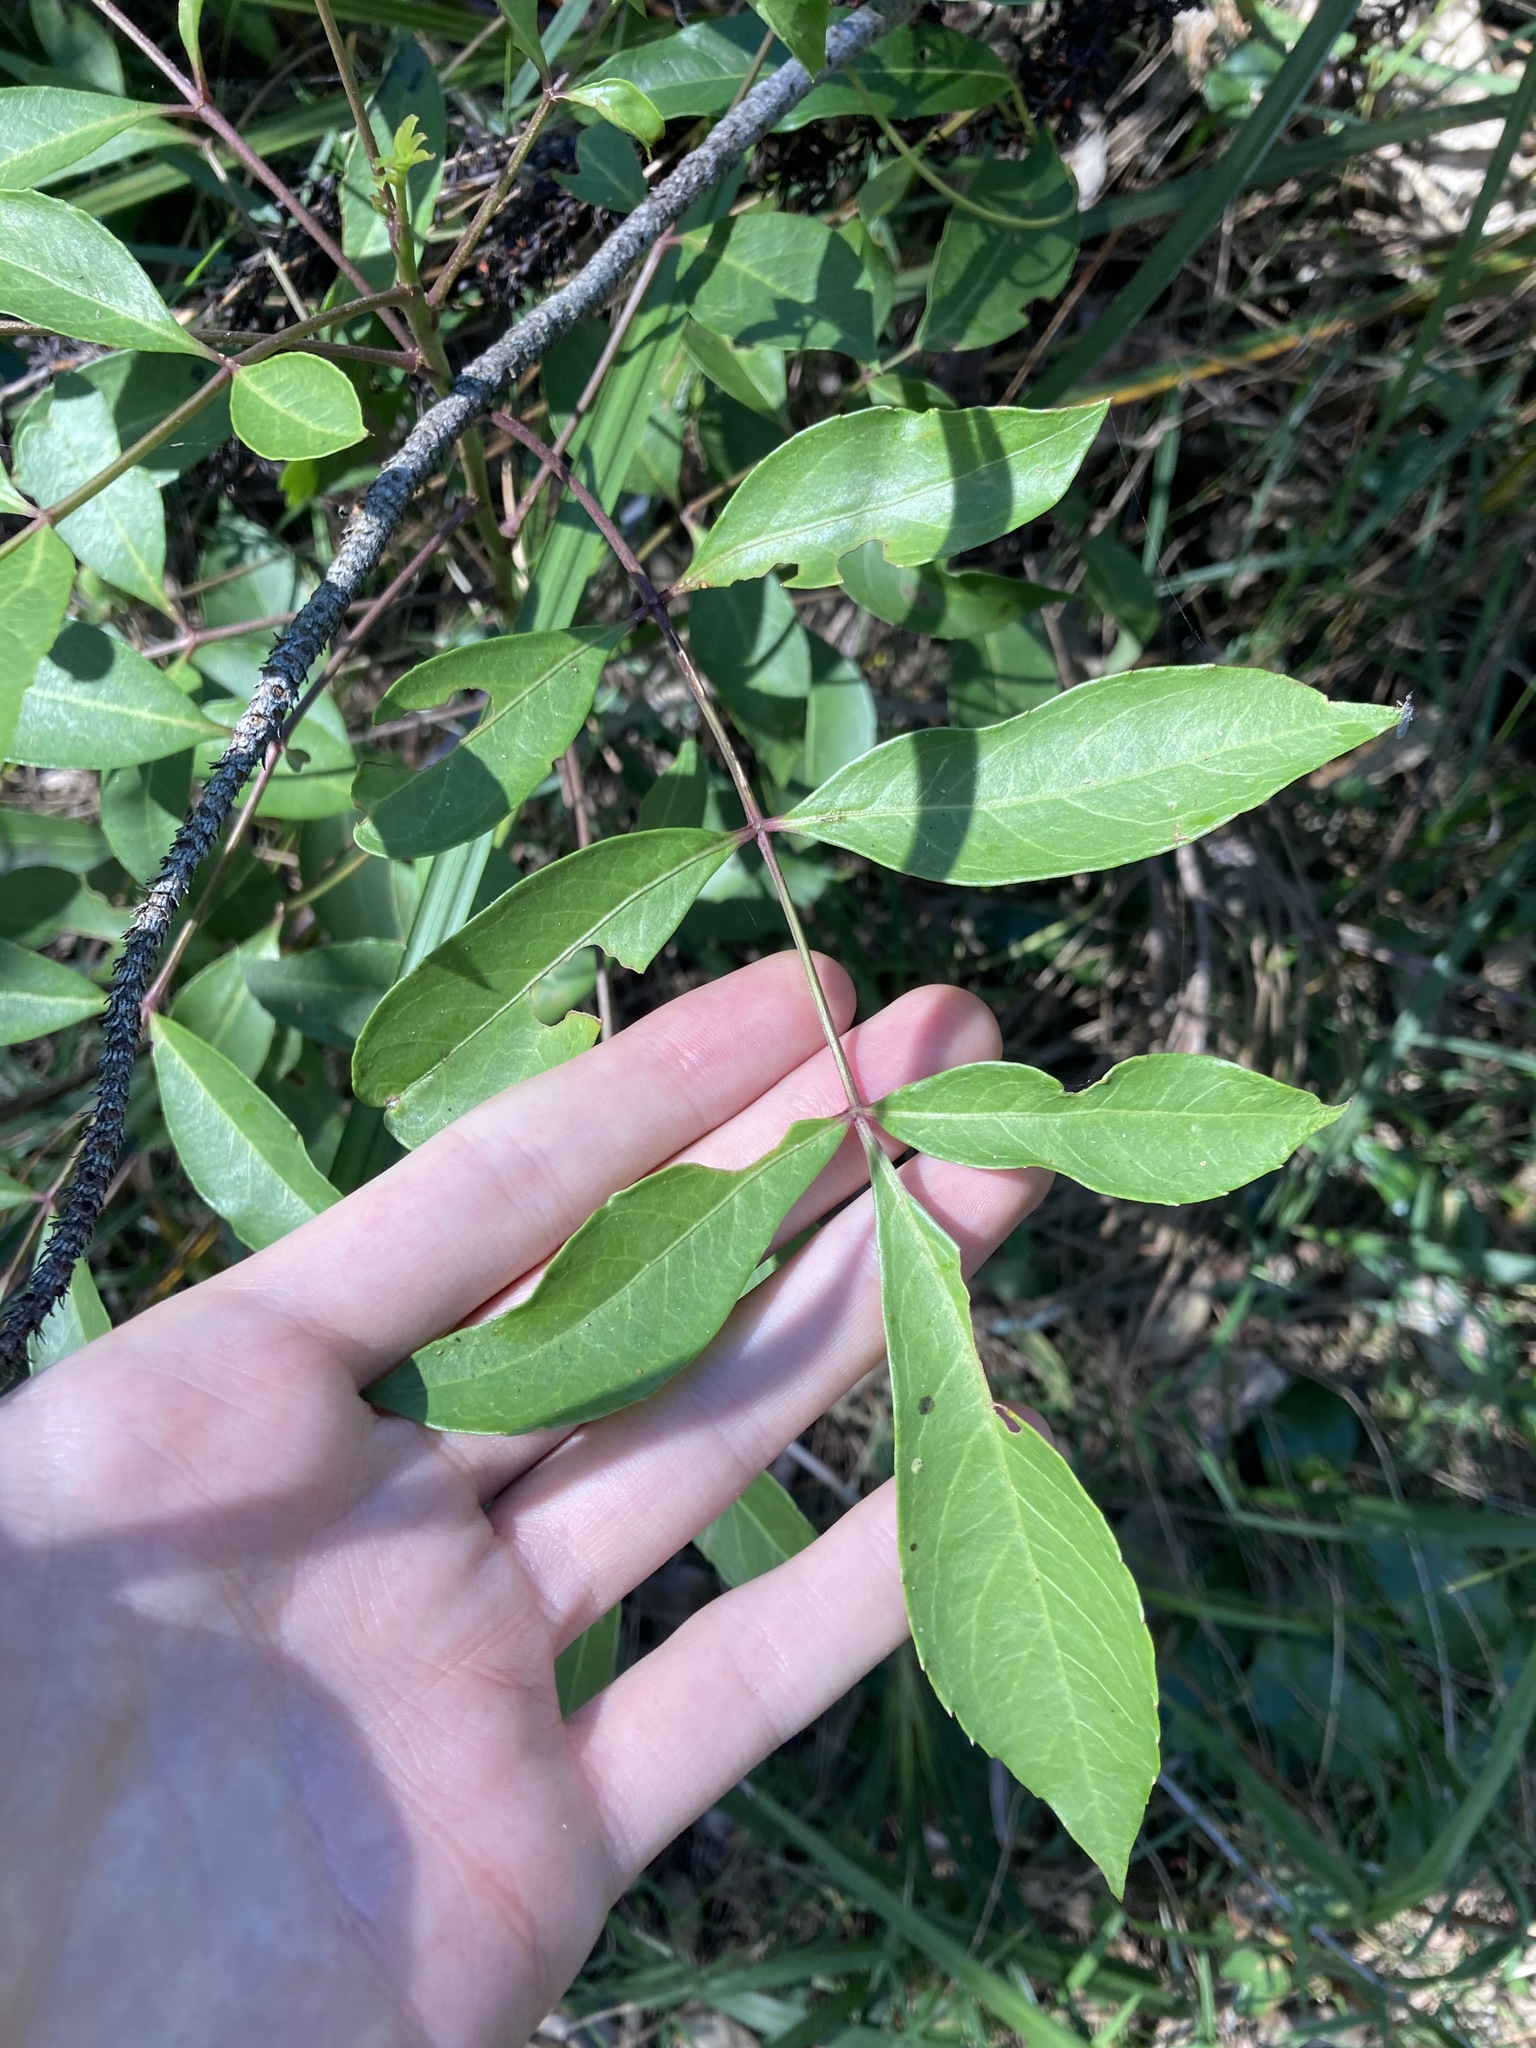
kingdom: Plantae
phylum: Tracheophyta
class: Magnoliopsida
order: Apiales
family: Araliaceae
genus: Polyscias
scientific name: Polyscias sambucifolia
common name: Elderberry-ash
